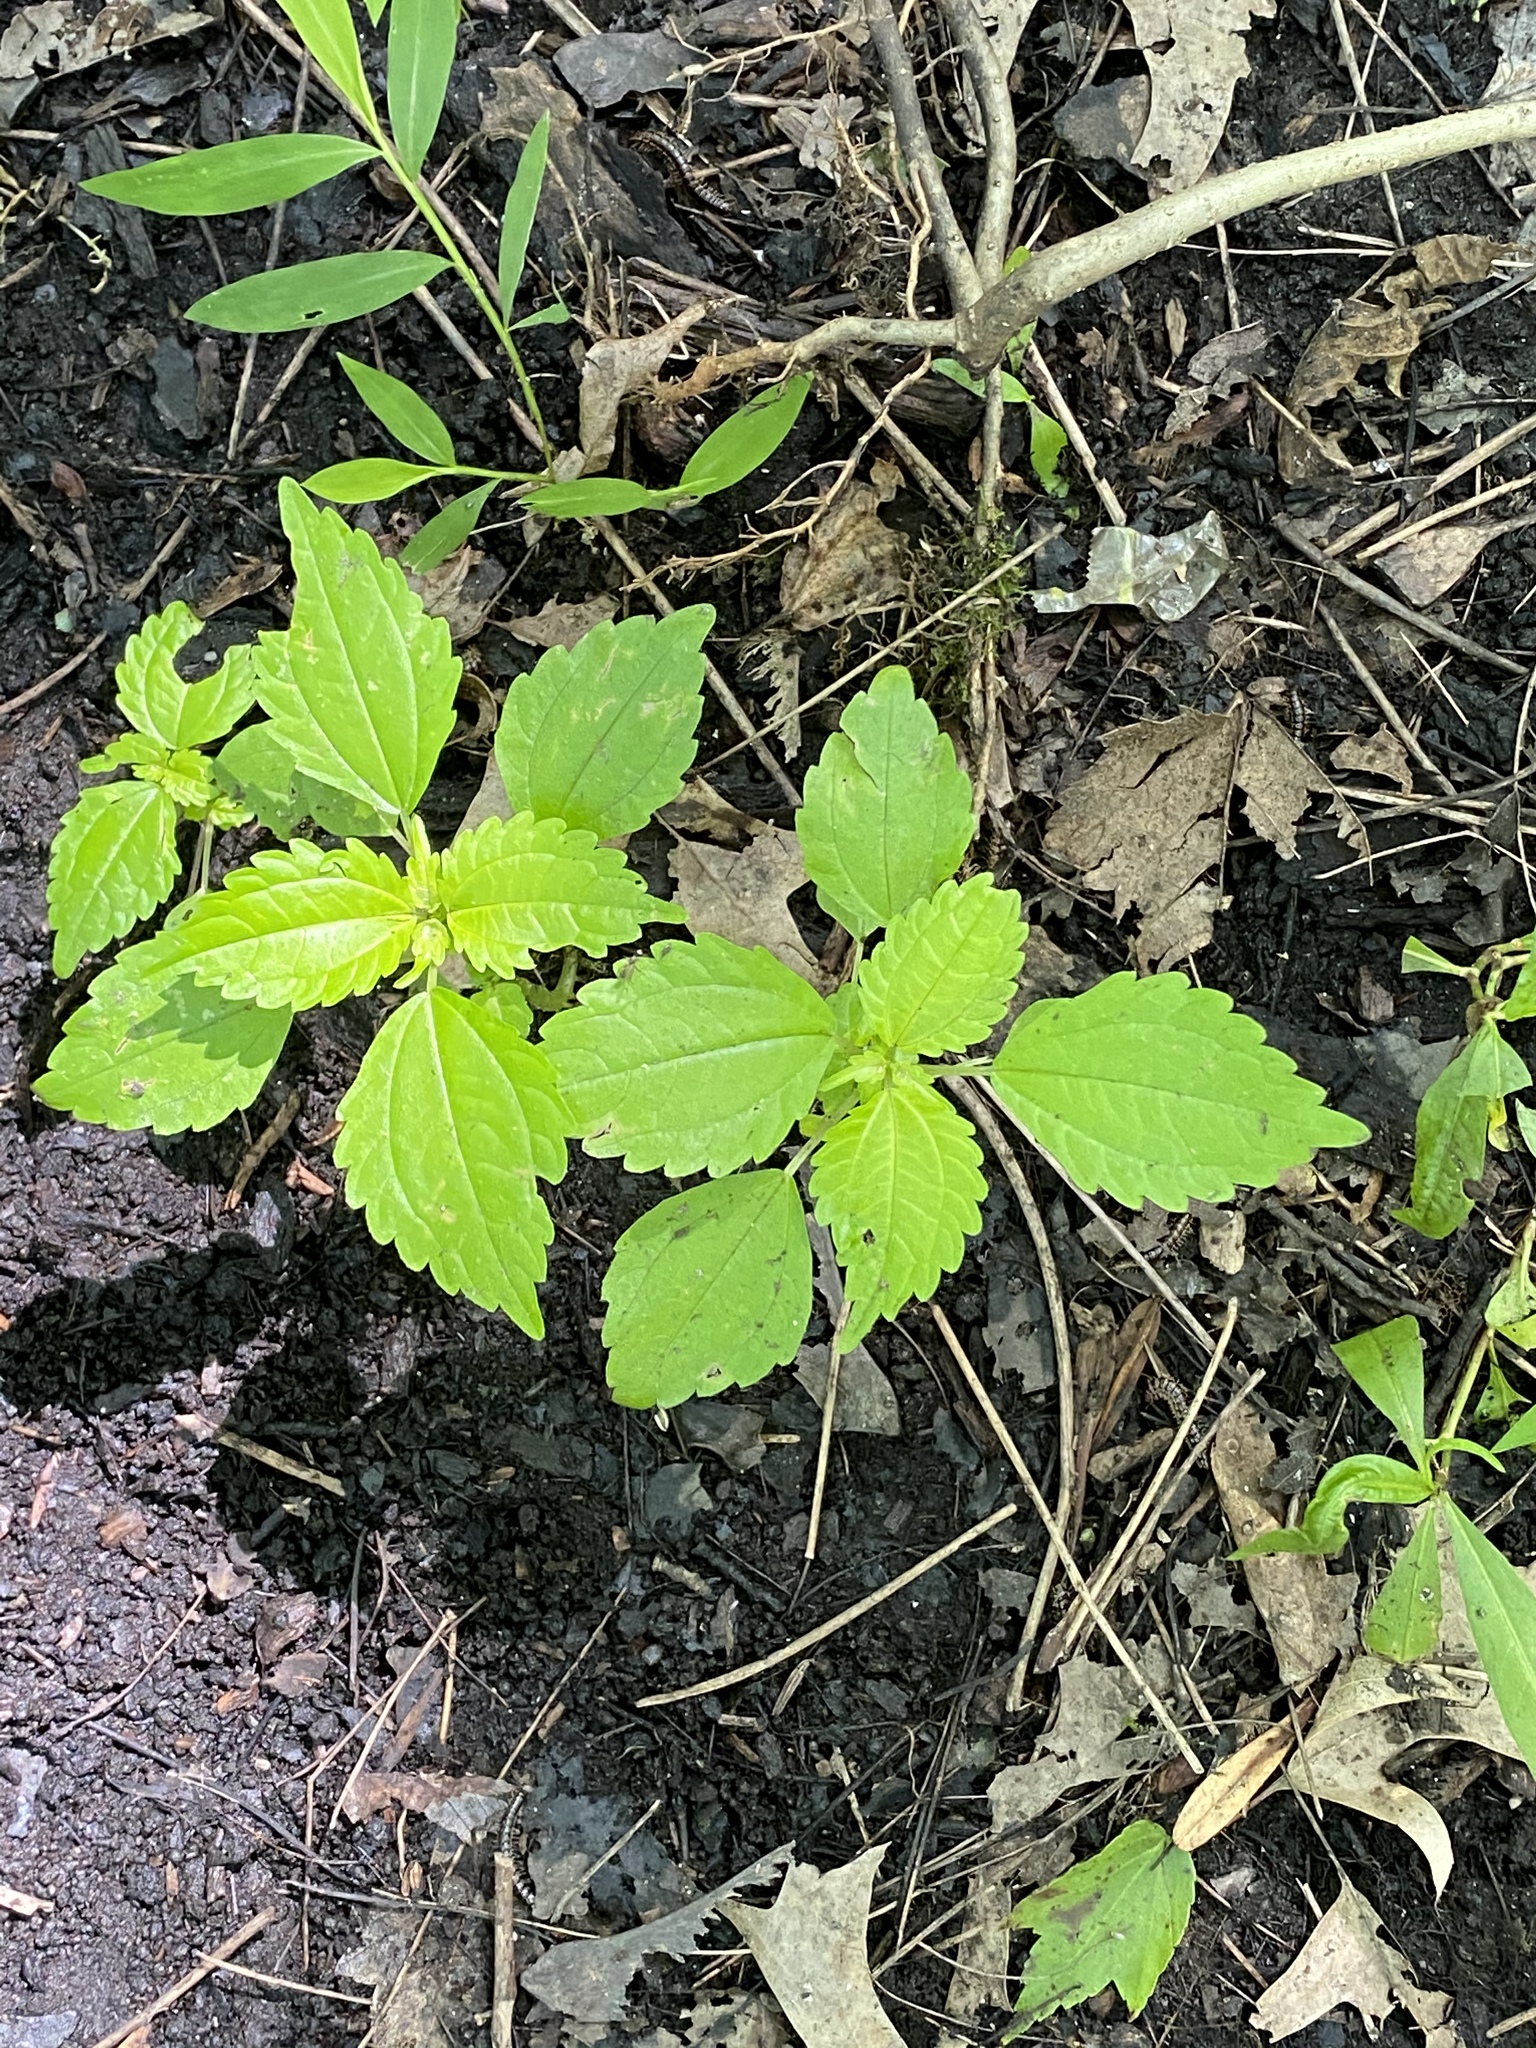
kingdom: Plantae
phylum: Tracheophyta
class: Magnoliopsida
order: Rosales
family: Urticaceae
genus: Pilea
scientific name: Pilea pumila
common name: Clearweed
